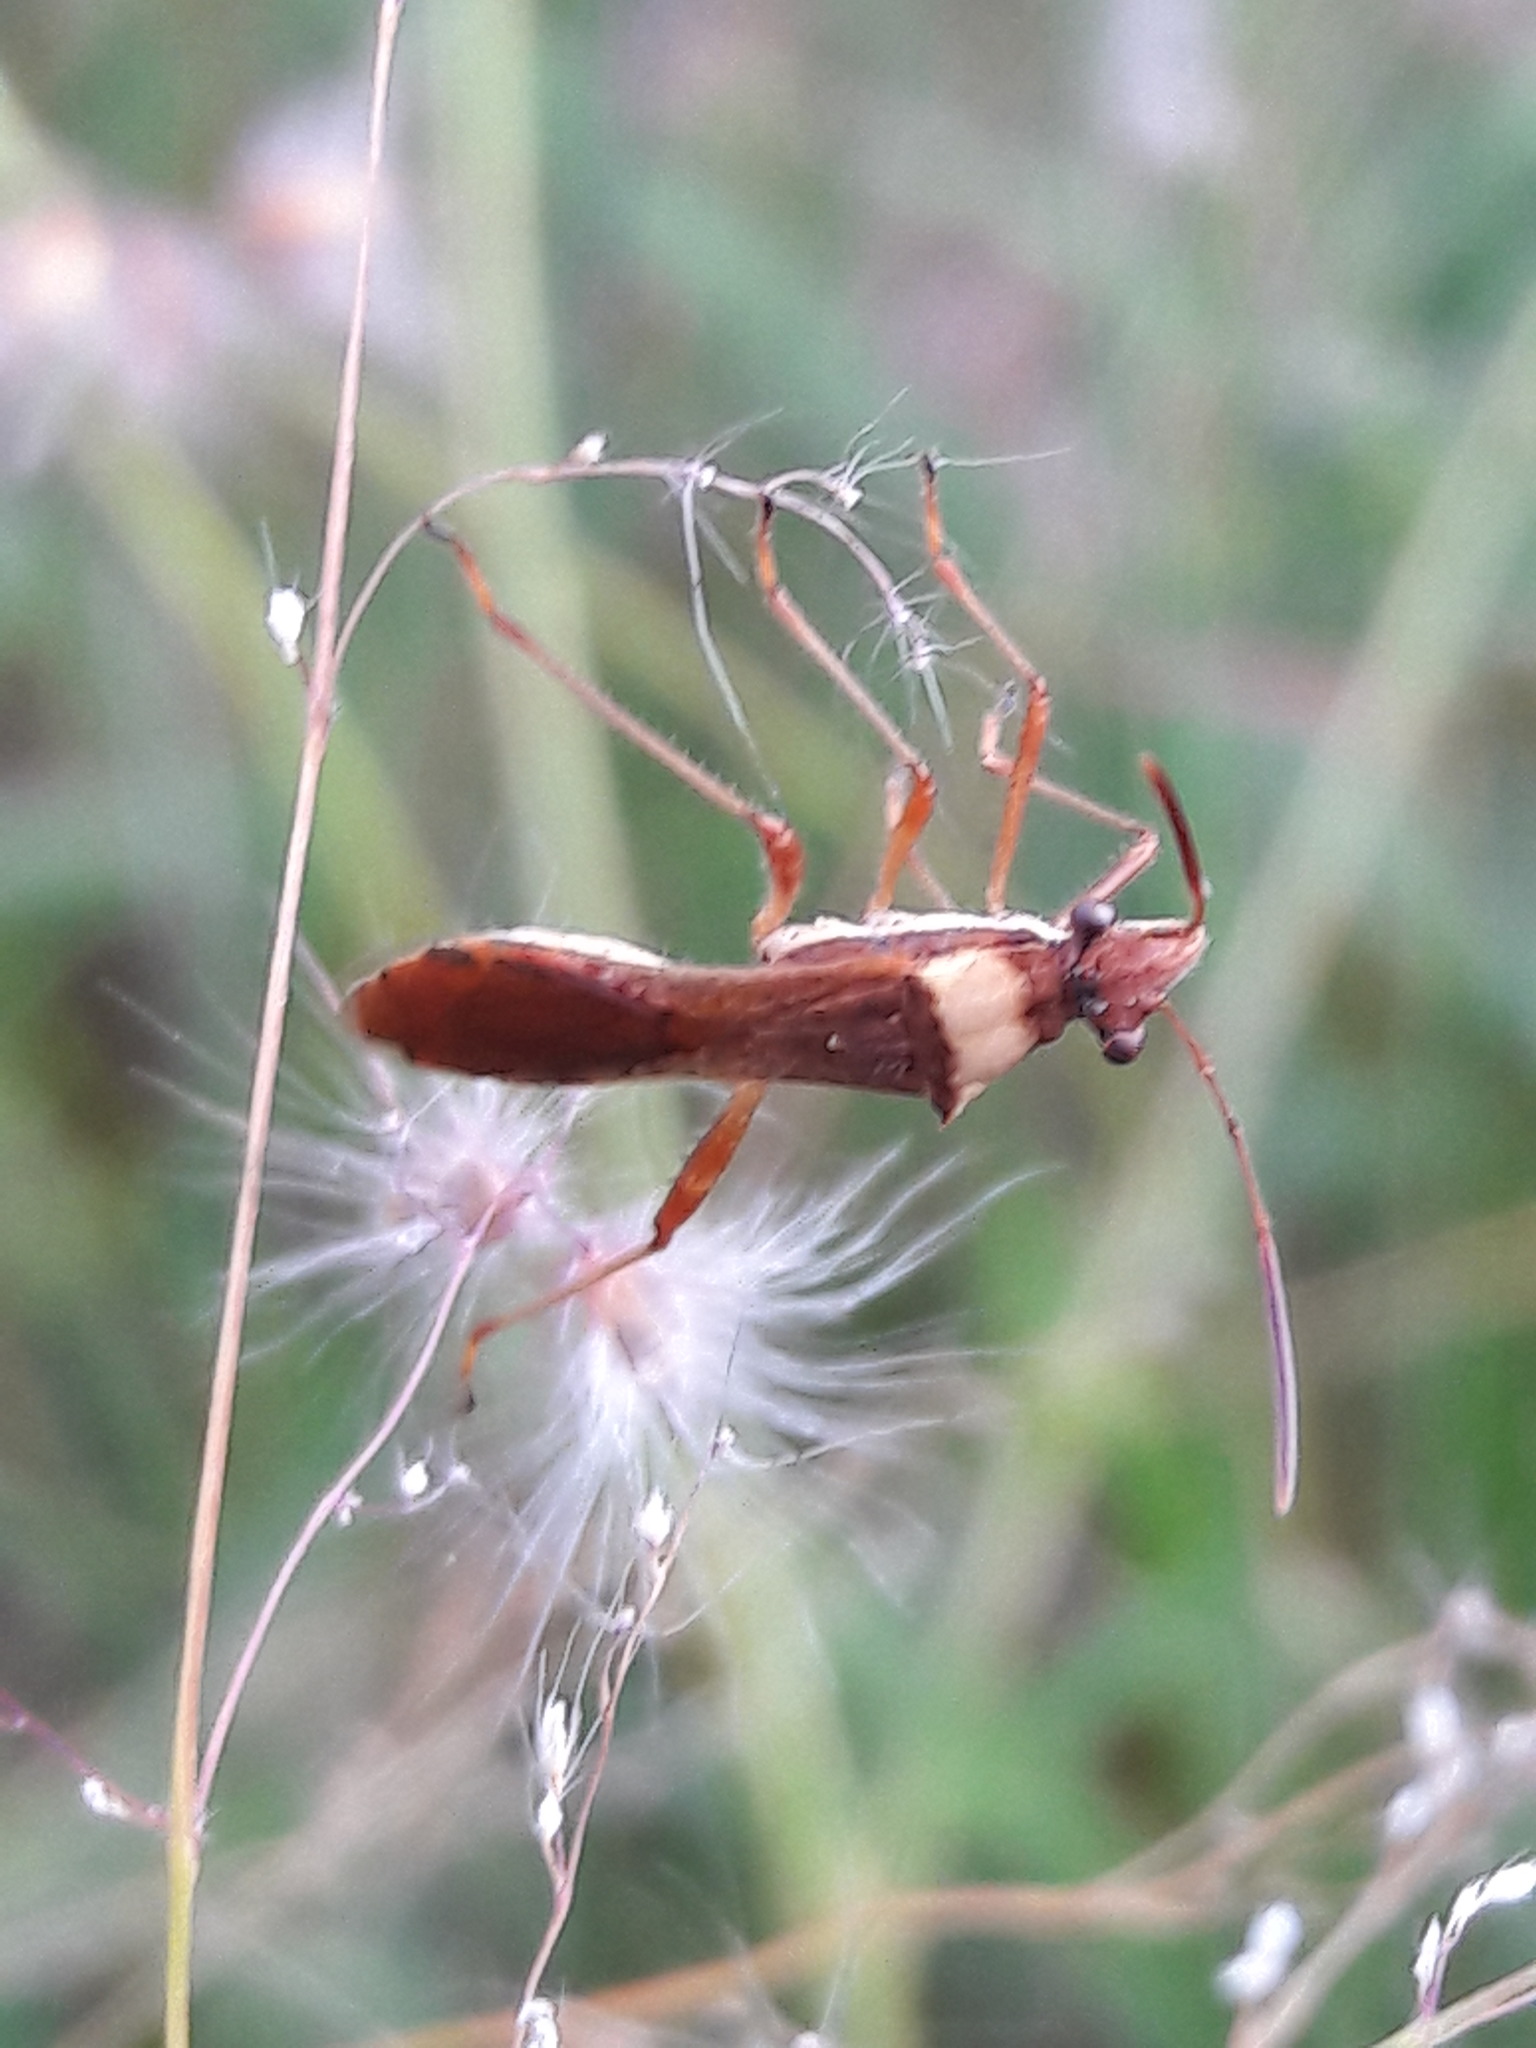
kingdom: Animalia
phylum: Arthropoda
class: Insecta
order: Hemiptera
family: Alydidae
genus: Neomegalotomus
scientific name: Neomegalotomus parvus
